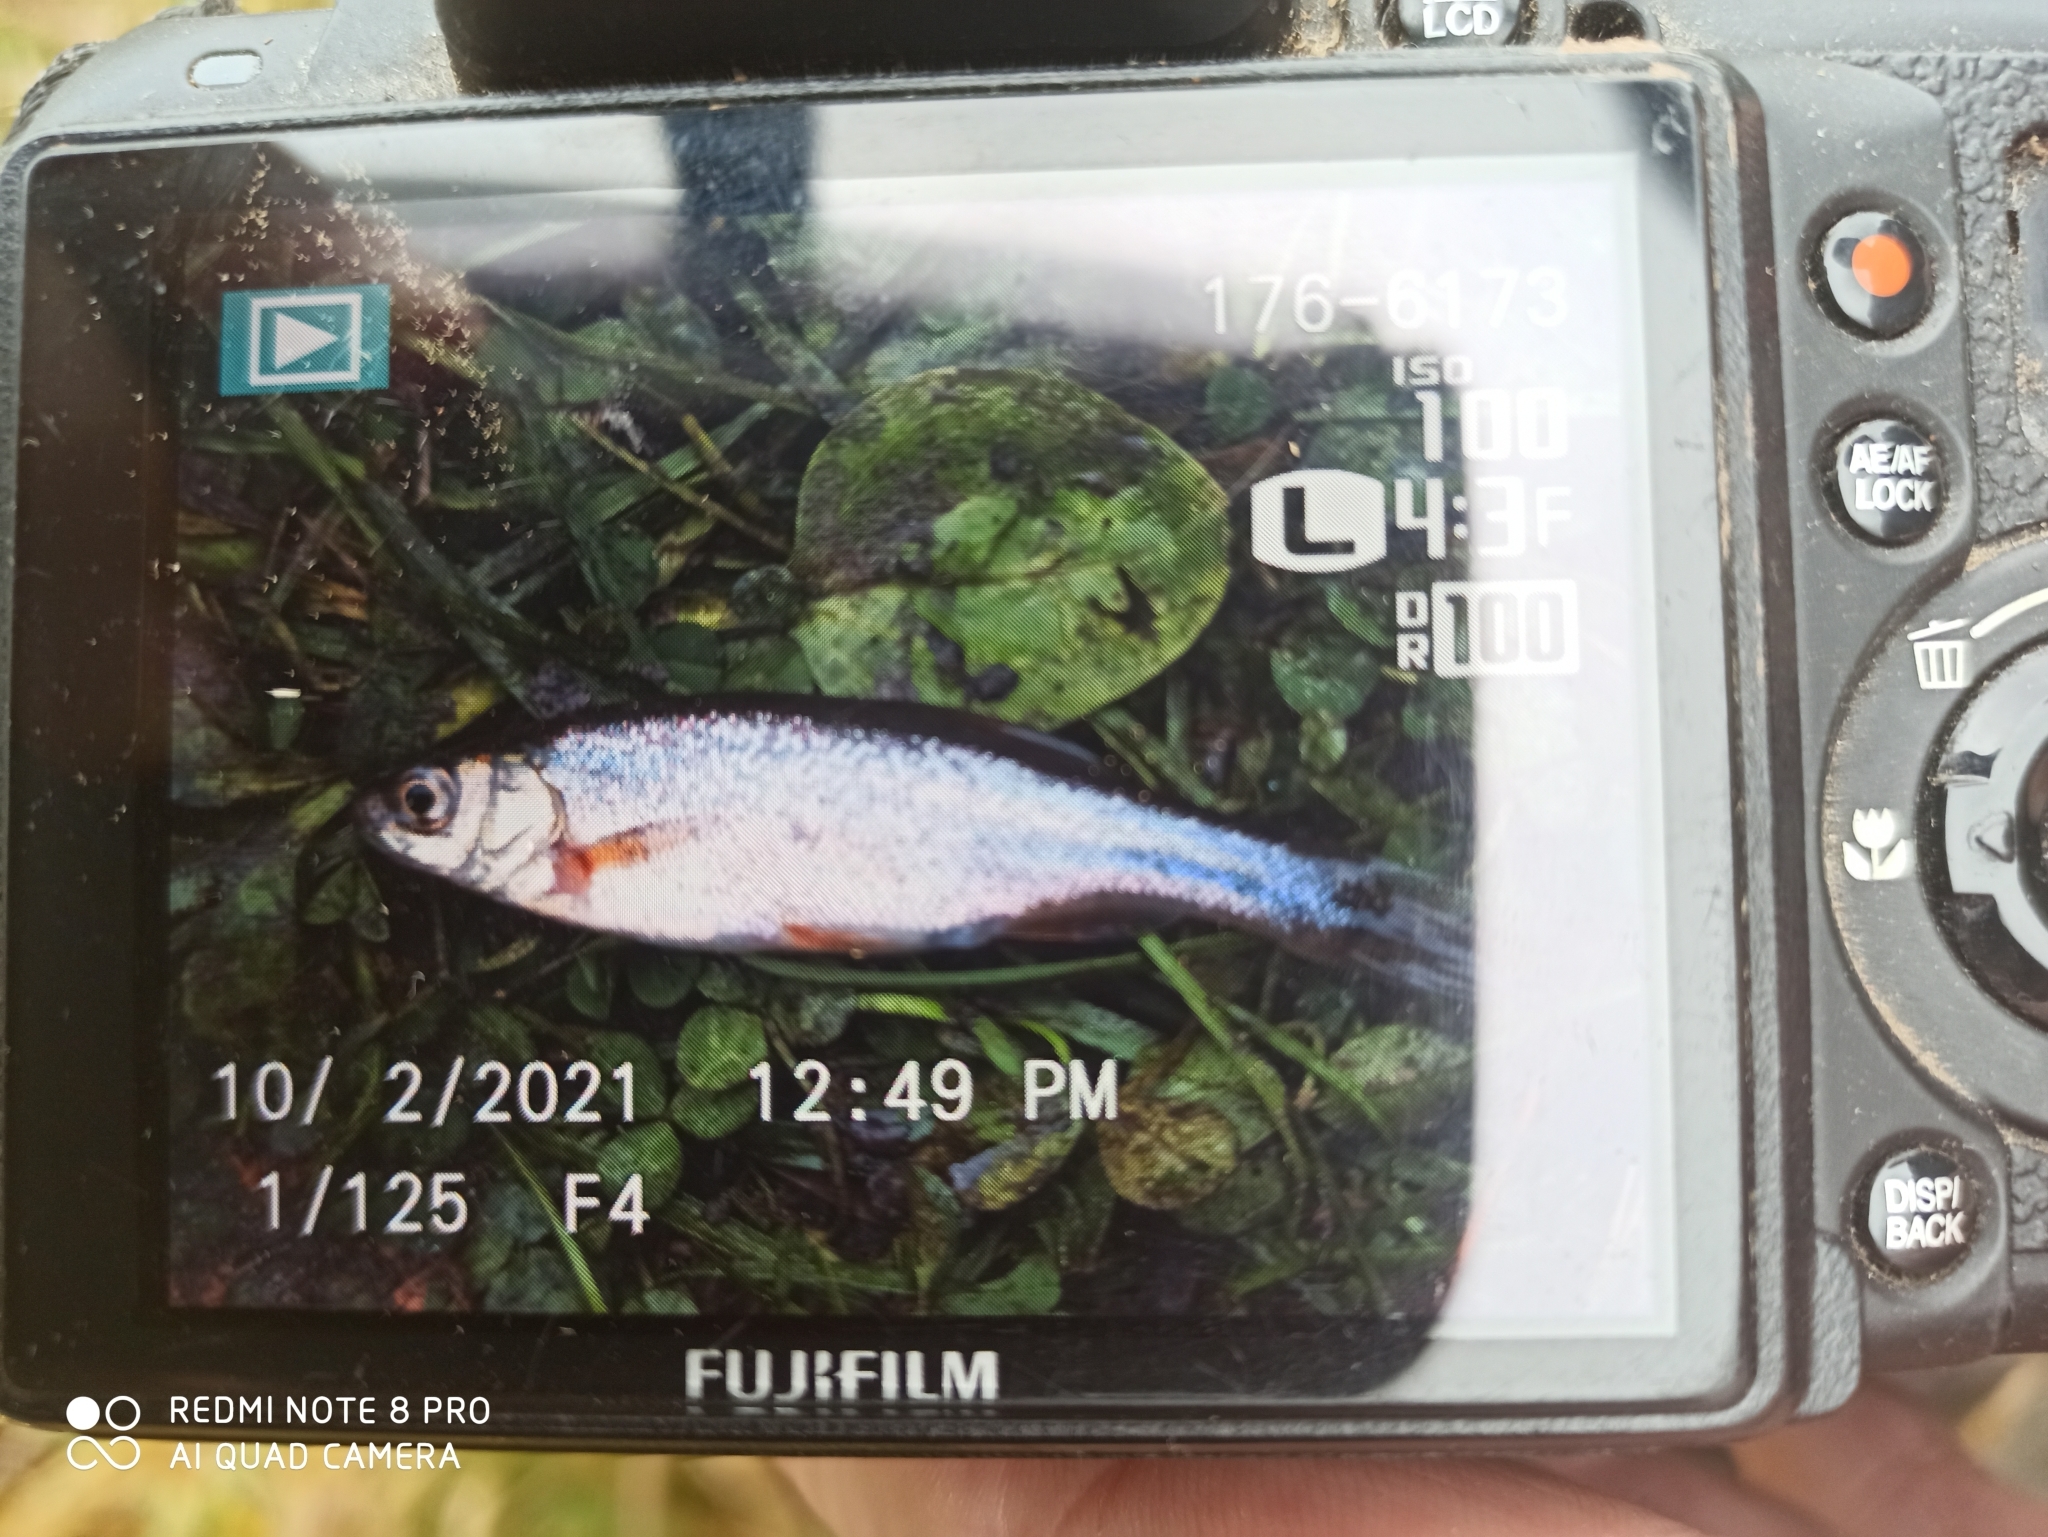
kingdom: Animalia
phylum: Chordata
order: Cypriniformes
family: Cyprinidae
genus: Rhynchocypris
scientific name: Rhynchocypris percnurus
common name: Swamp minnow
